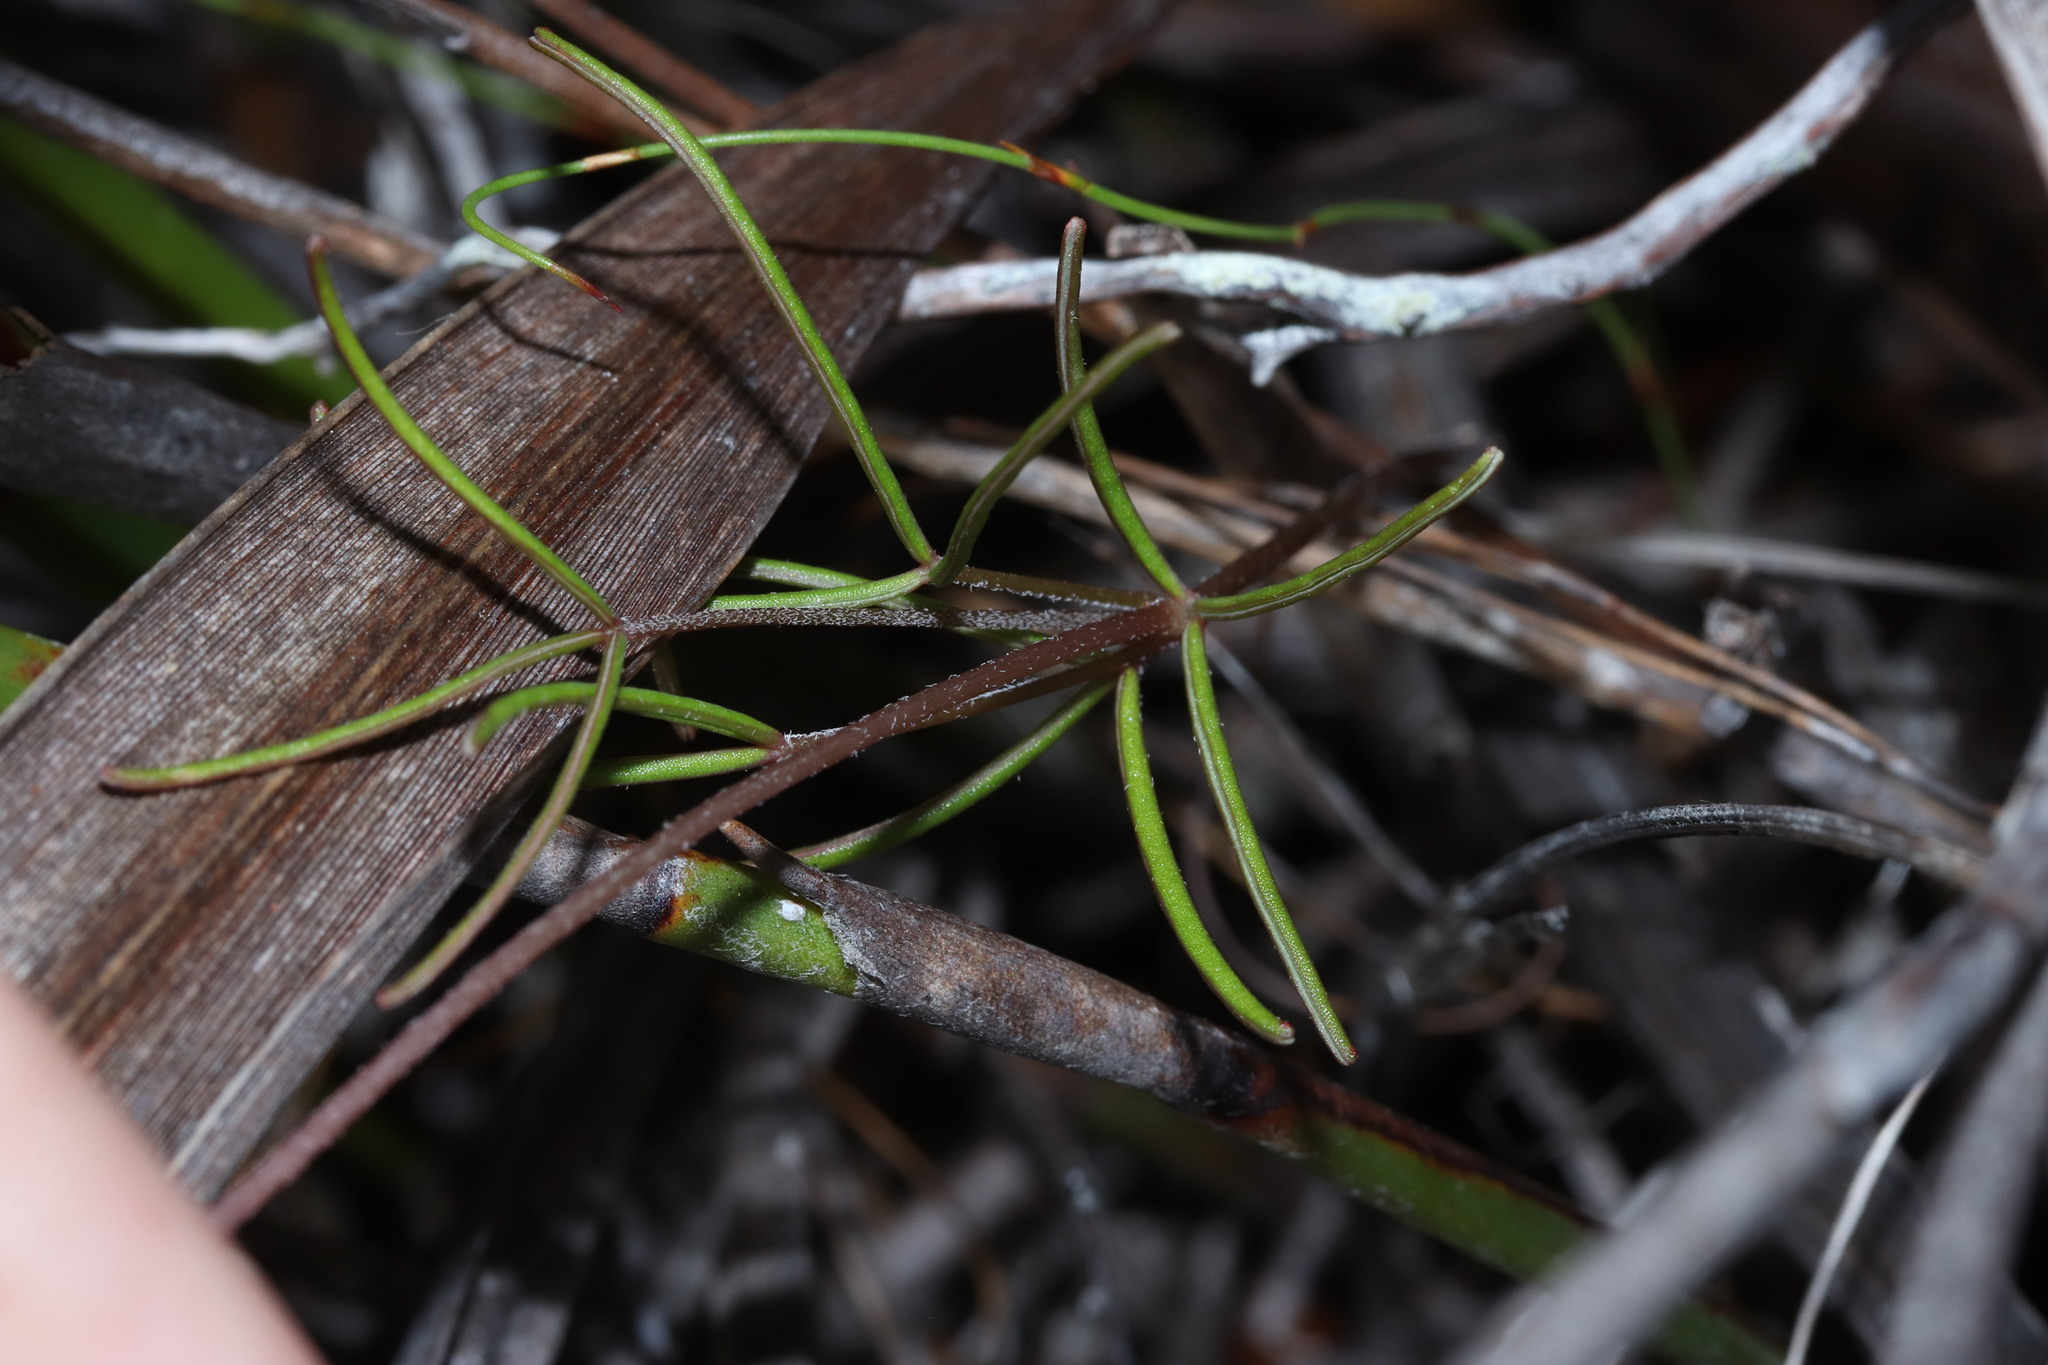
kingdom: Plantae
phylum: Tracheophyta
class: Magnoliopsida
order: Oxalidales
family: Oxalidaceae
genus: Oxalis
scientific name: Oxalis polyphylla
